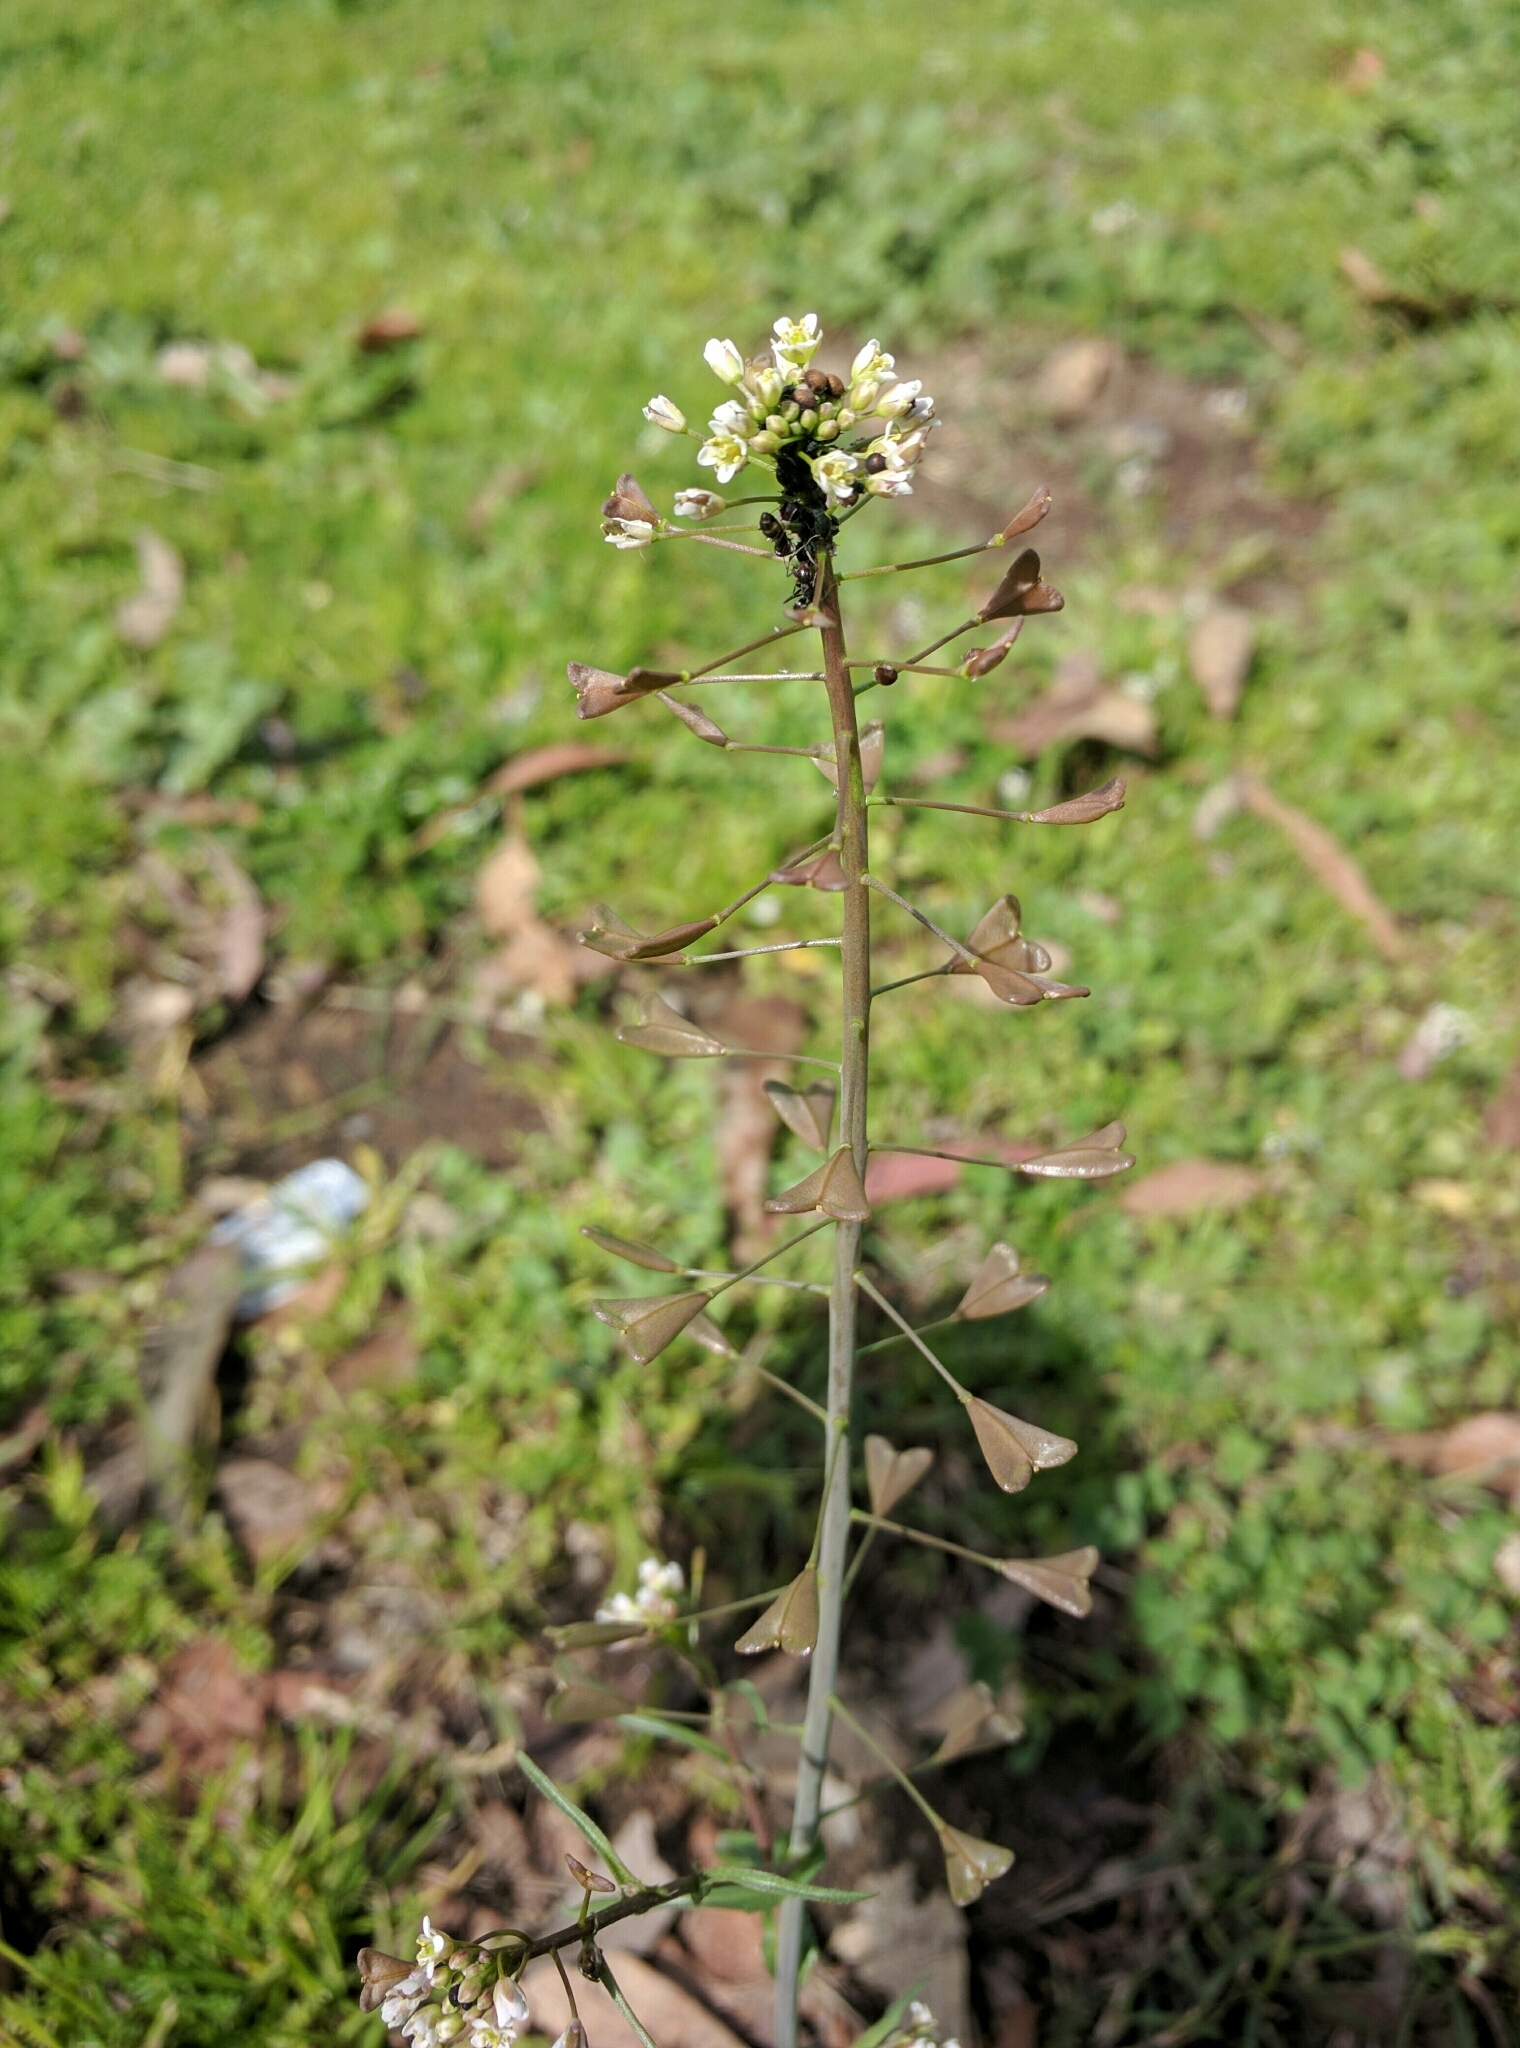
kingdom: Plantae
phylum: Tracheophyta
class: Magnoliopsida
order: Brassicales
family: Brassicaceae
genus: Capsella
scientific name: Capsella bursa-pastoris
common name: Shepherd's purse
